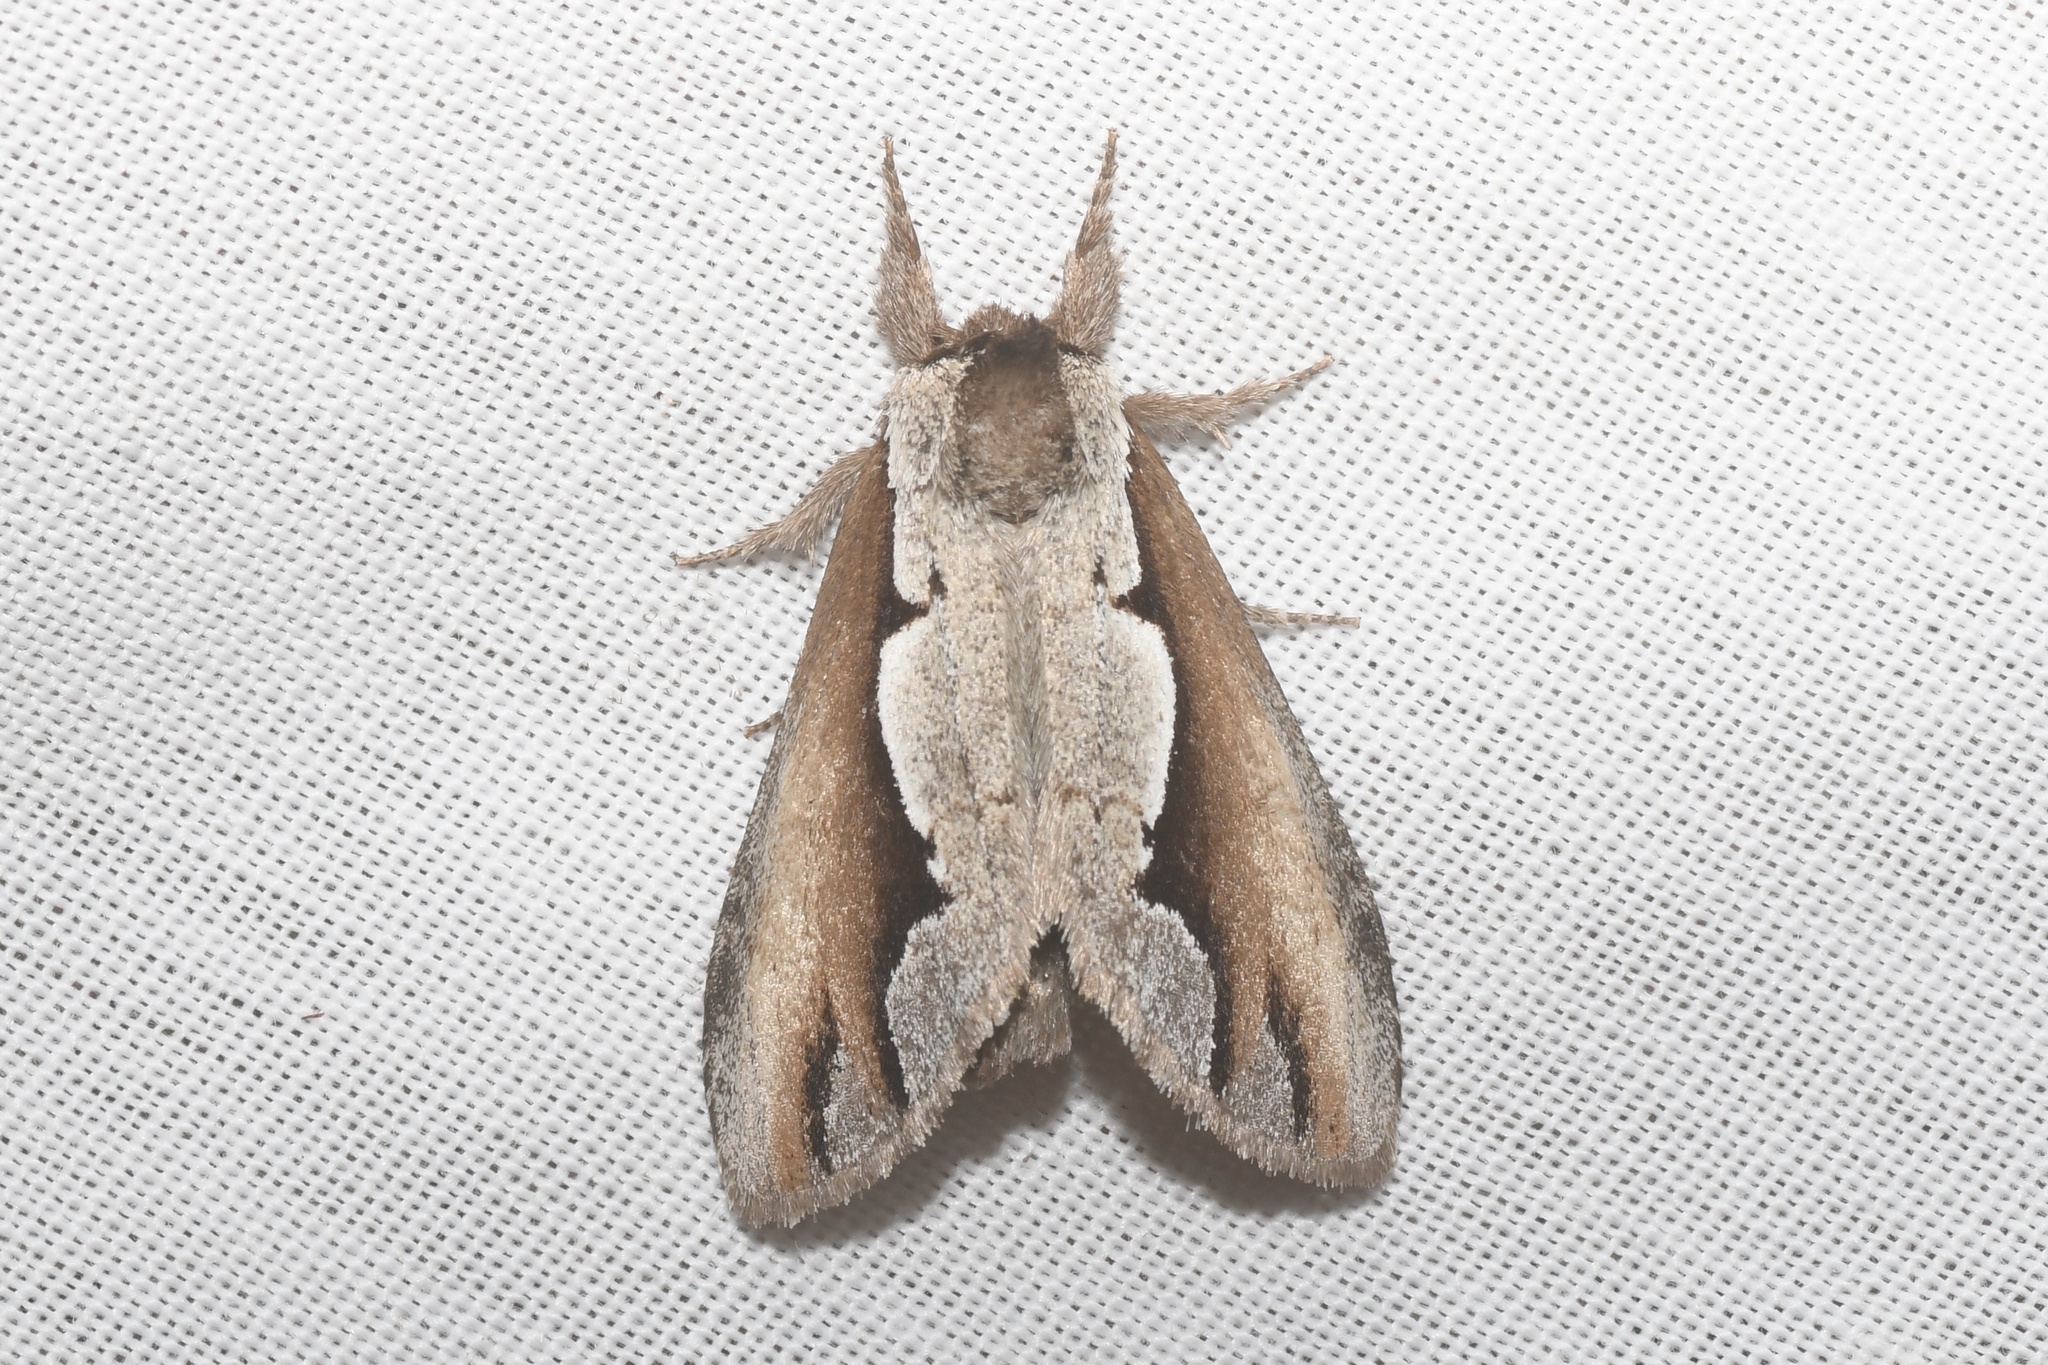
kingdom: Animalia
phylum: Arthropoda
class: Insecta
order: Lepidoptera
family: Notodontidae
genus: Nerice
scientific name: Nerice bidentata
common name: Double-toothed prominent
